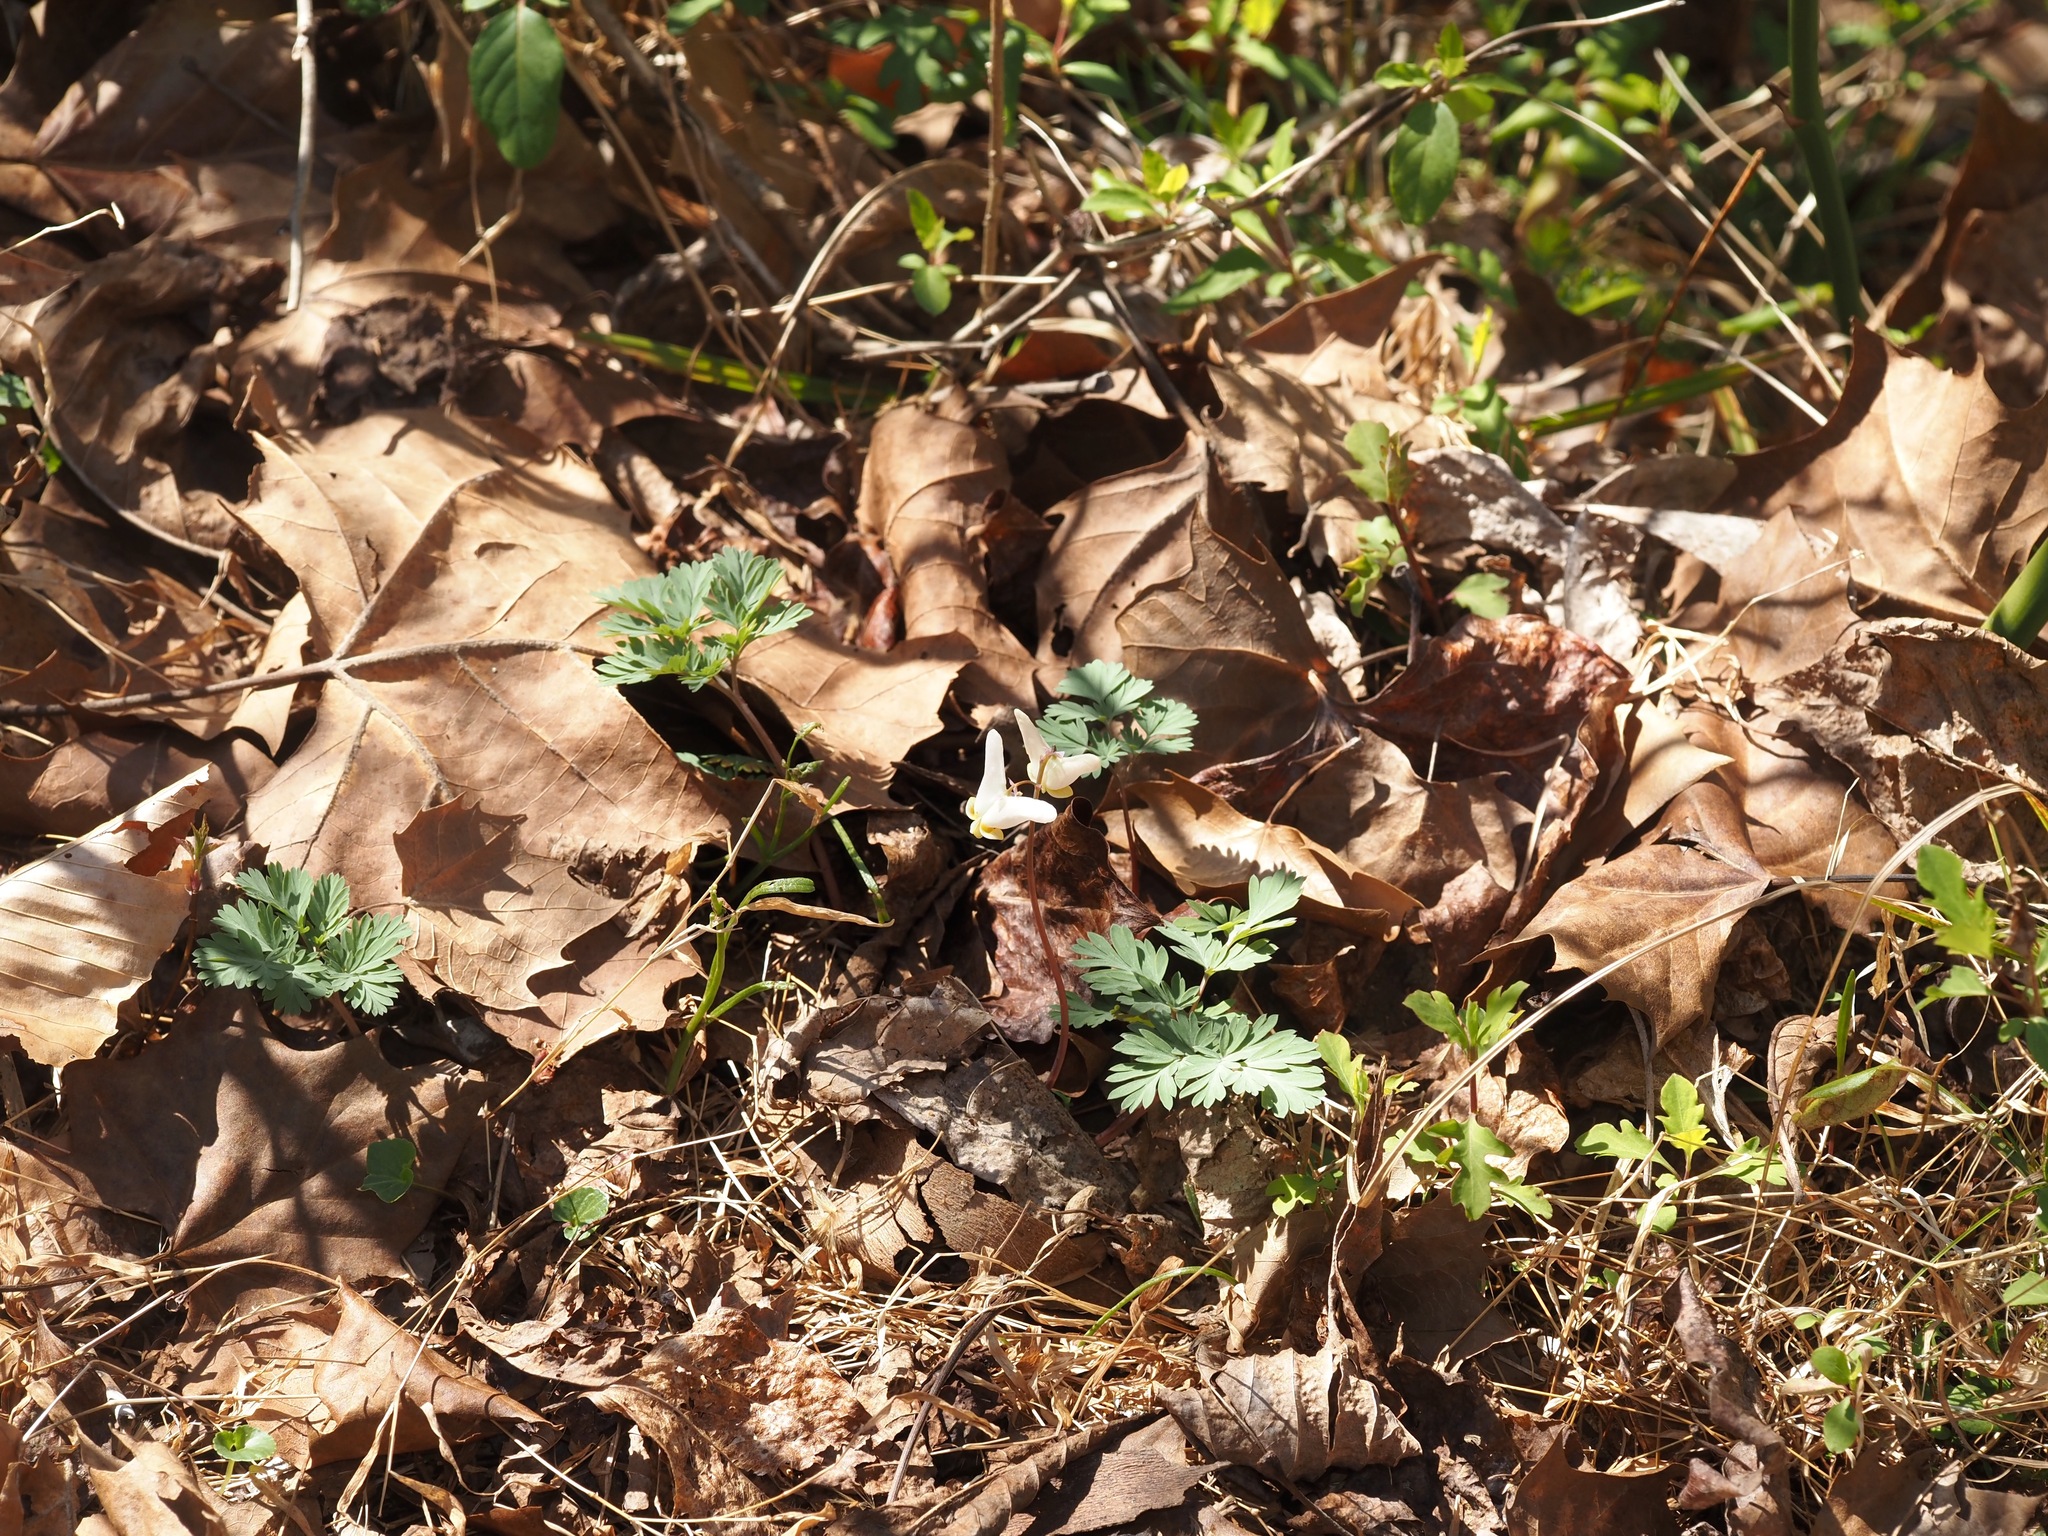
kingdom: Plantae
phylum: Tracheophyta
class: Magnoliopsida
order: Ranunculales
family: Papaveraceae
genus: Dicentra
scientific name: Dicentra cucullaria
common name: Dutchman's breeches
